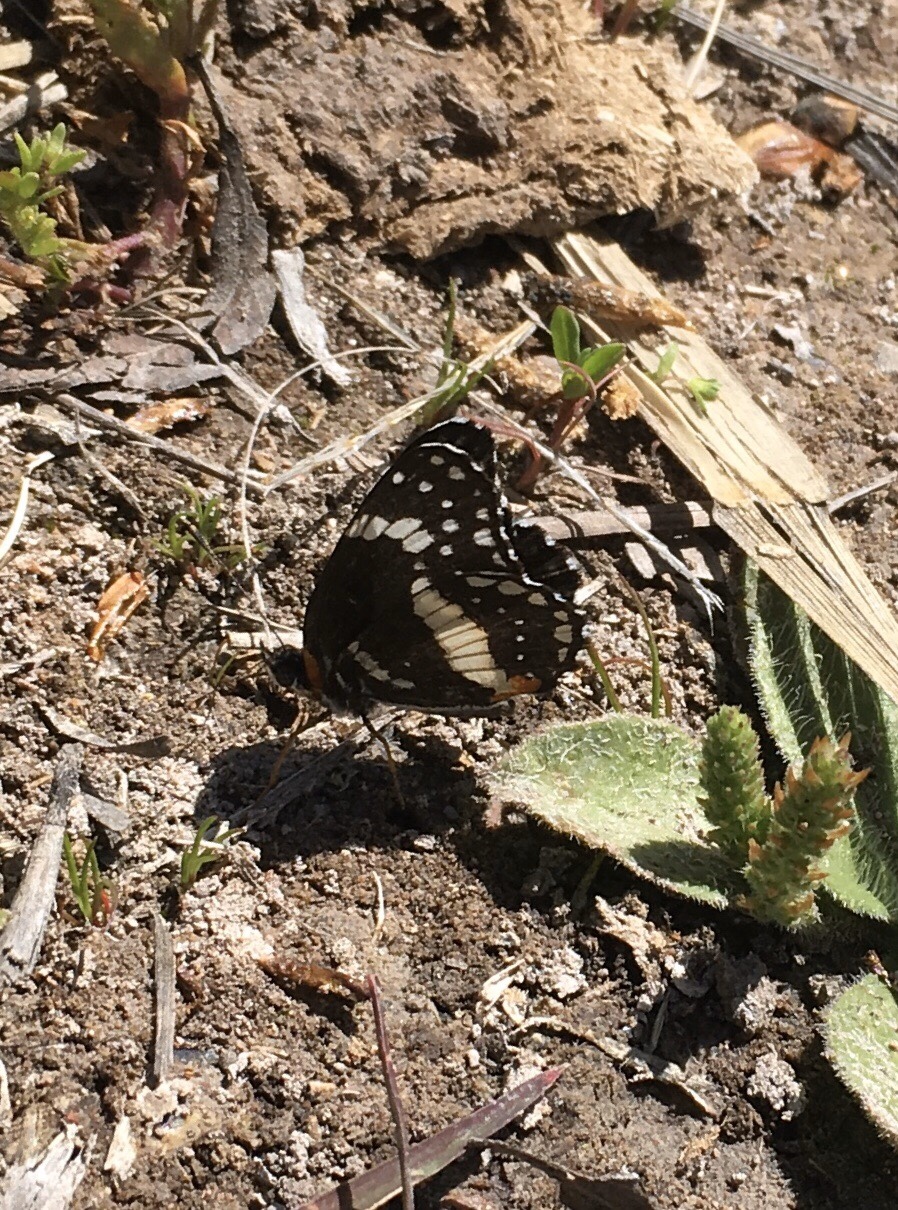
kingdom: Animalia
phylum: Arthropoda
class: Insecta
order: Lepidoptera
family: Nymphalidae
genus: Chlosyne
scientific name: Chlosyne lacinia
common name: Bordered patch
